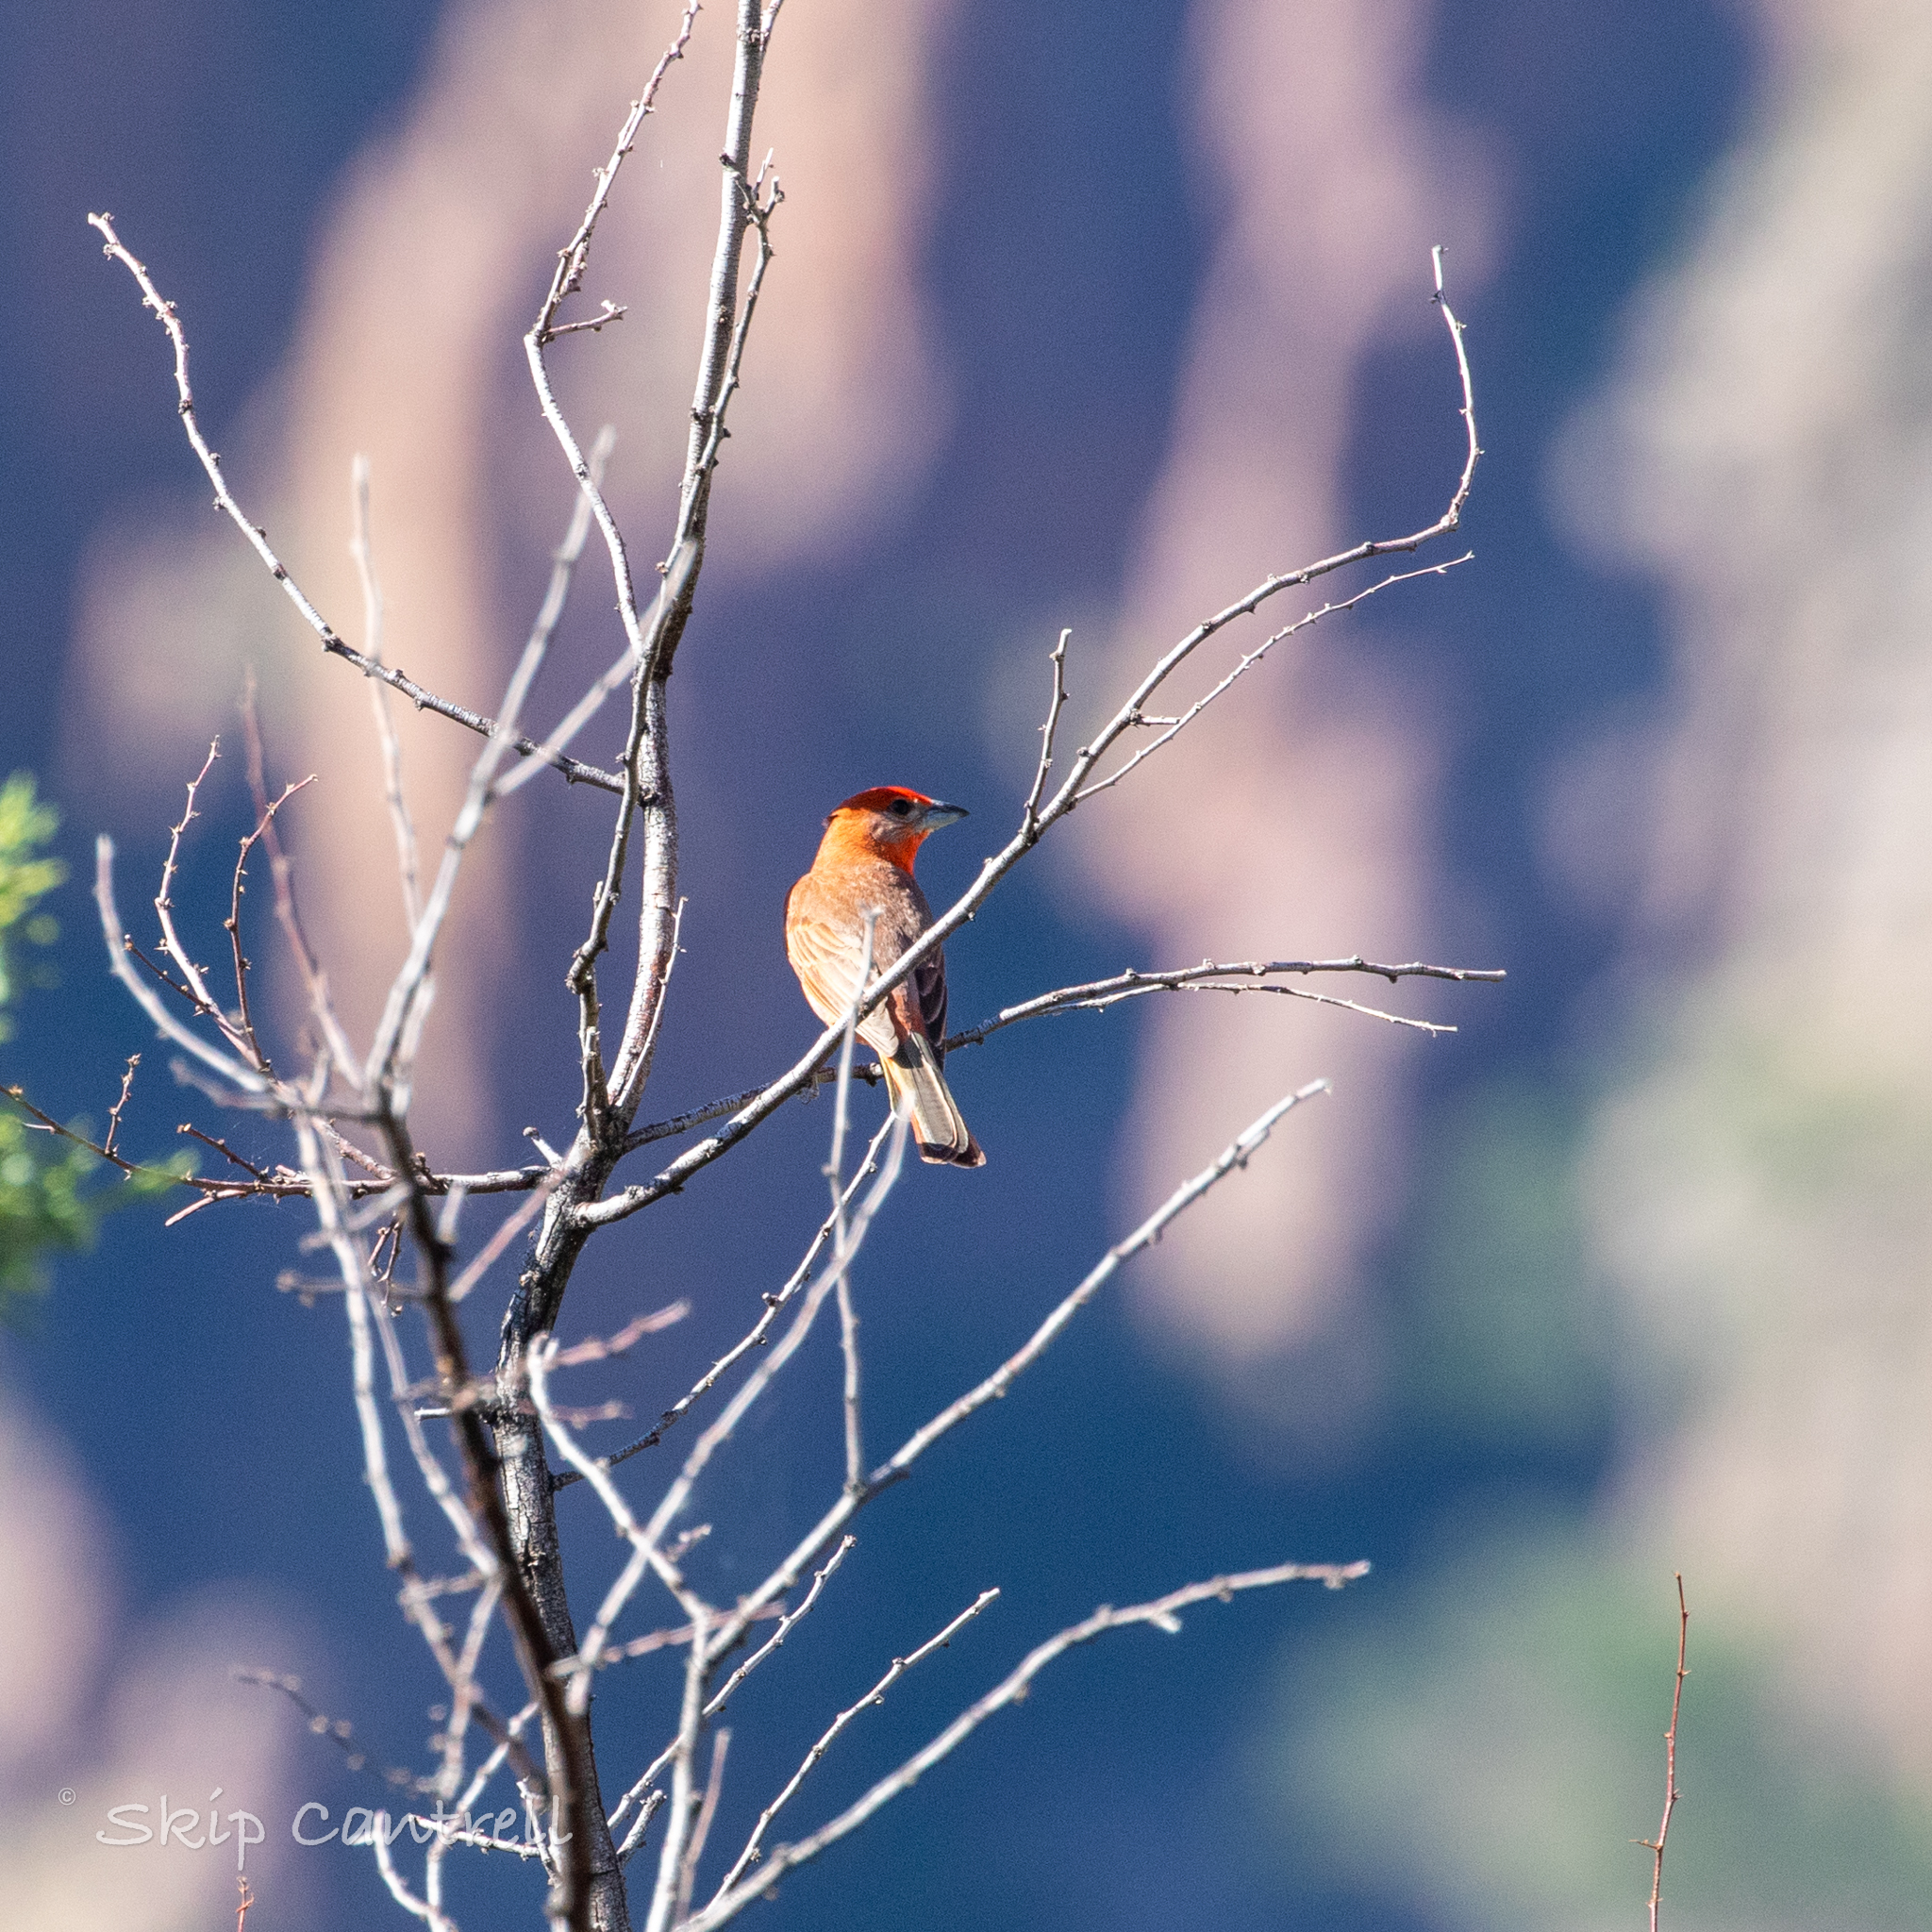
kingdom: Animalia
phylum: Chordata
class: Aves
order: Passeriformes
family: Cardinalidae
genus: Piranga
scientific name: Piranga flava
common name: Red tanager
